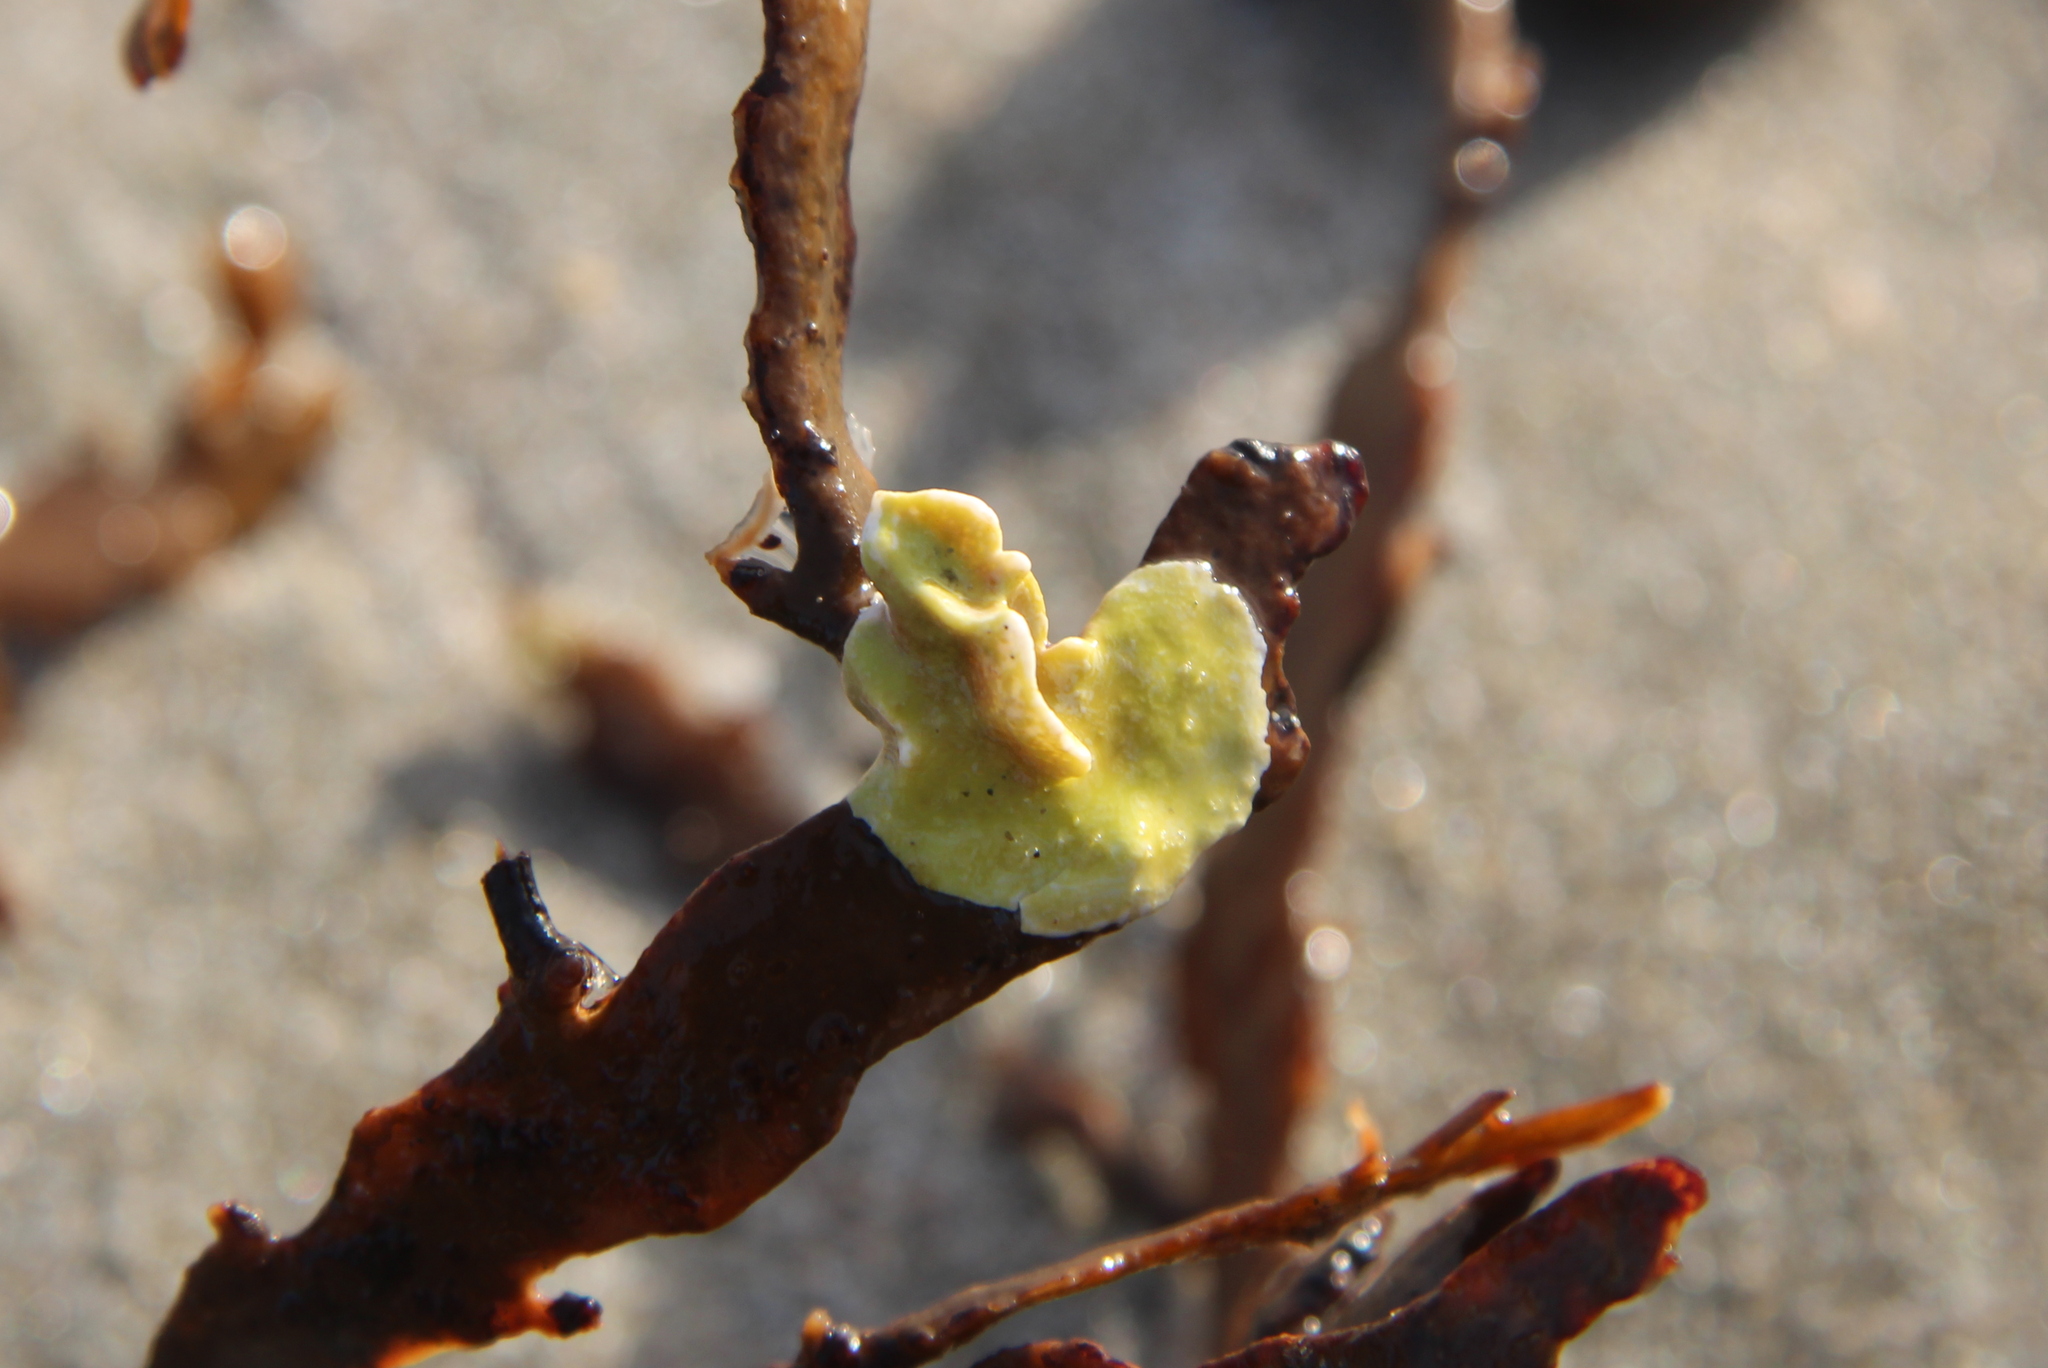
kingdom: Plantae
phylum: Rhodophyta
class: Florideophyceae
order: Corallinales
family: Lithophyllaceae
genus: Lithophyllum
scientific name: Lithophyllum carpophylli
